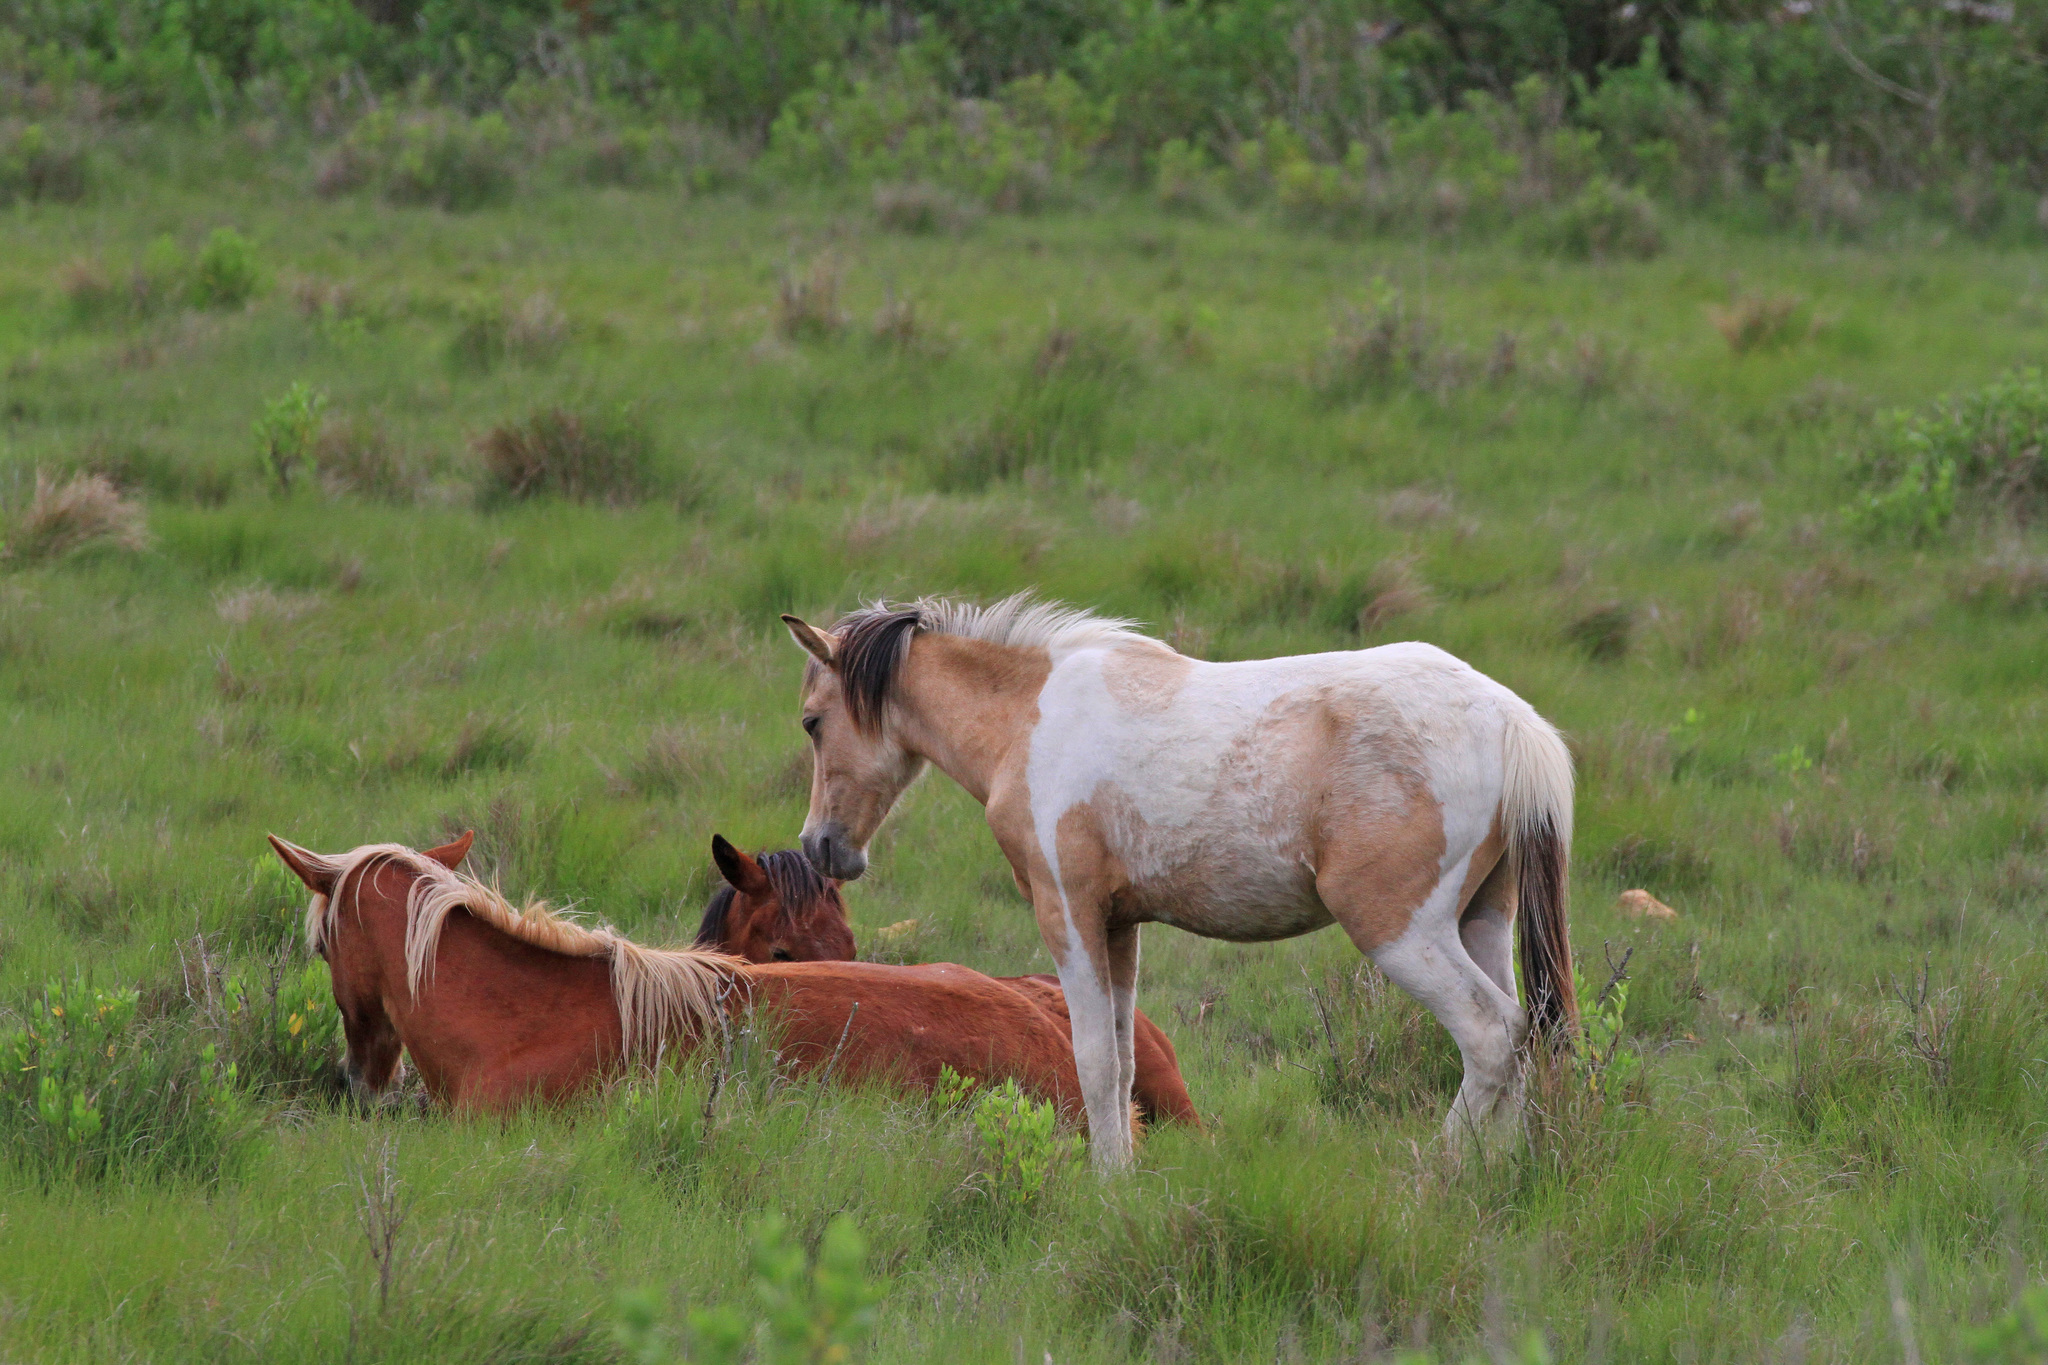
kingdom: Animalia
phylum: Chordata
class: Mammalia
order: Perissodactyla
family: Equidae
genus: Equus
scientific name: Equus caballus
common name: Horse
